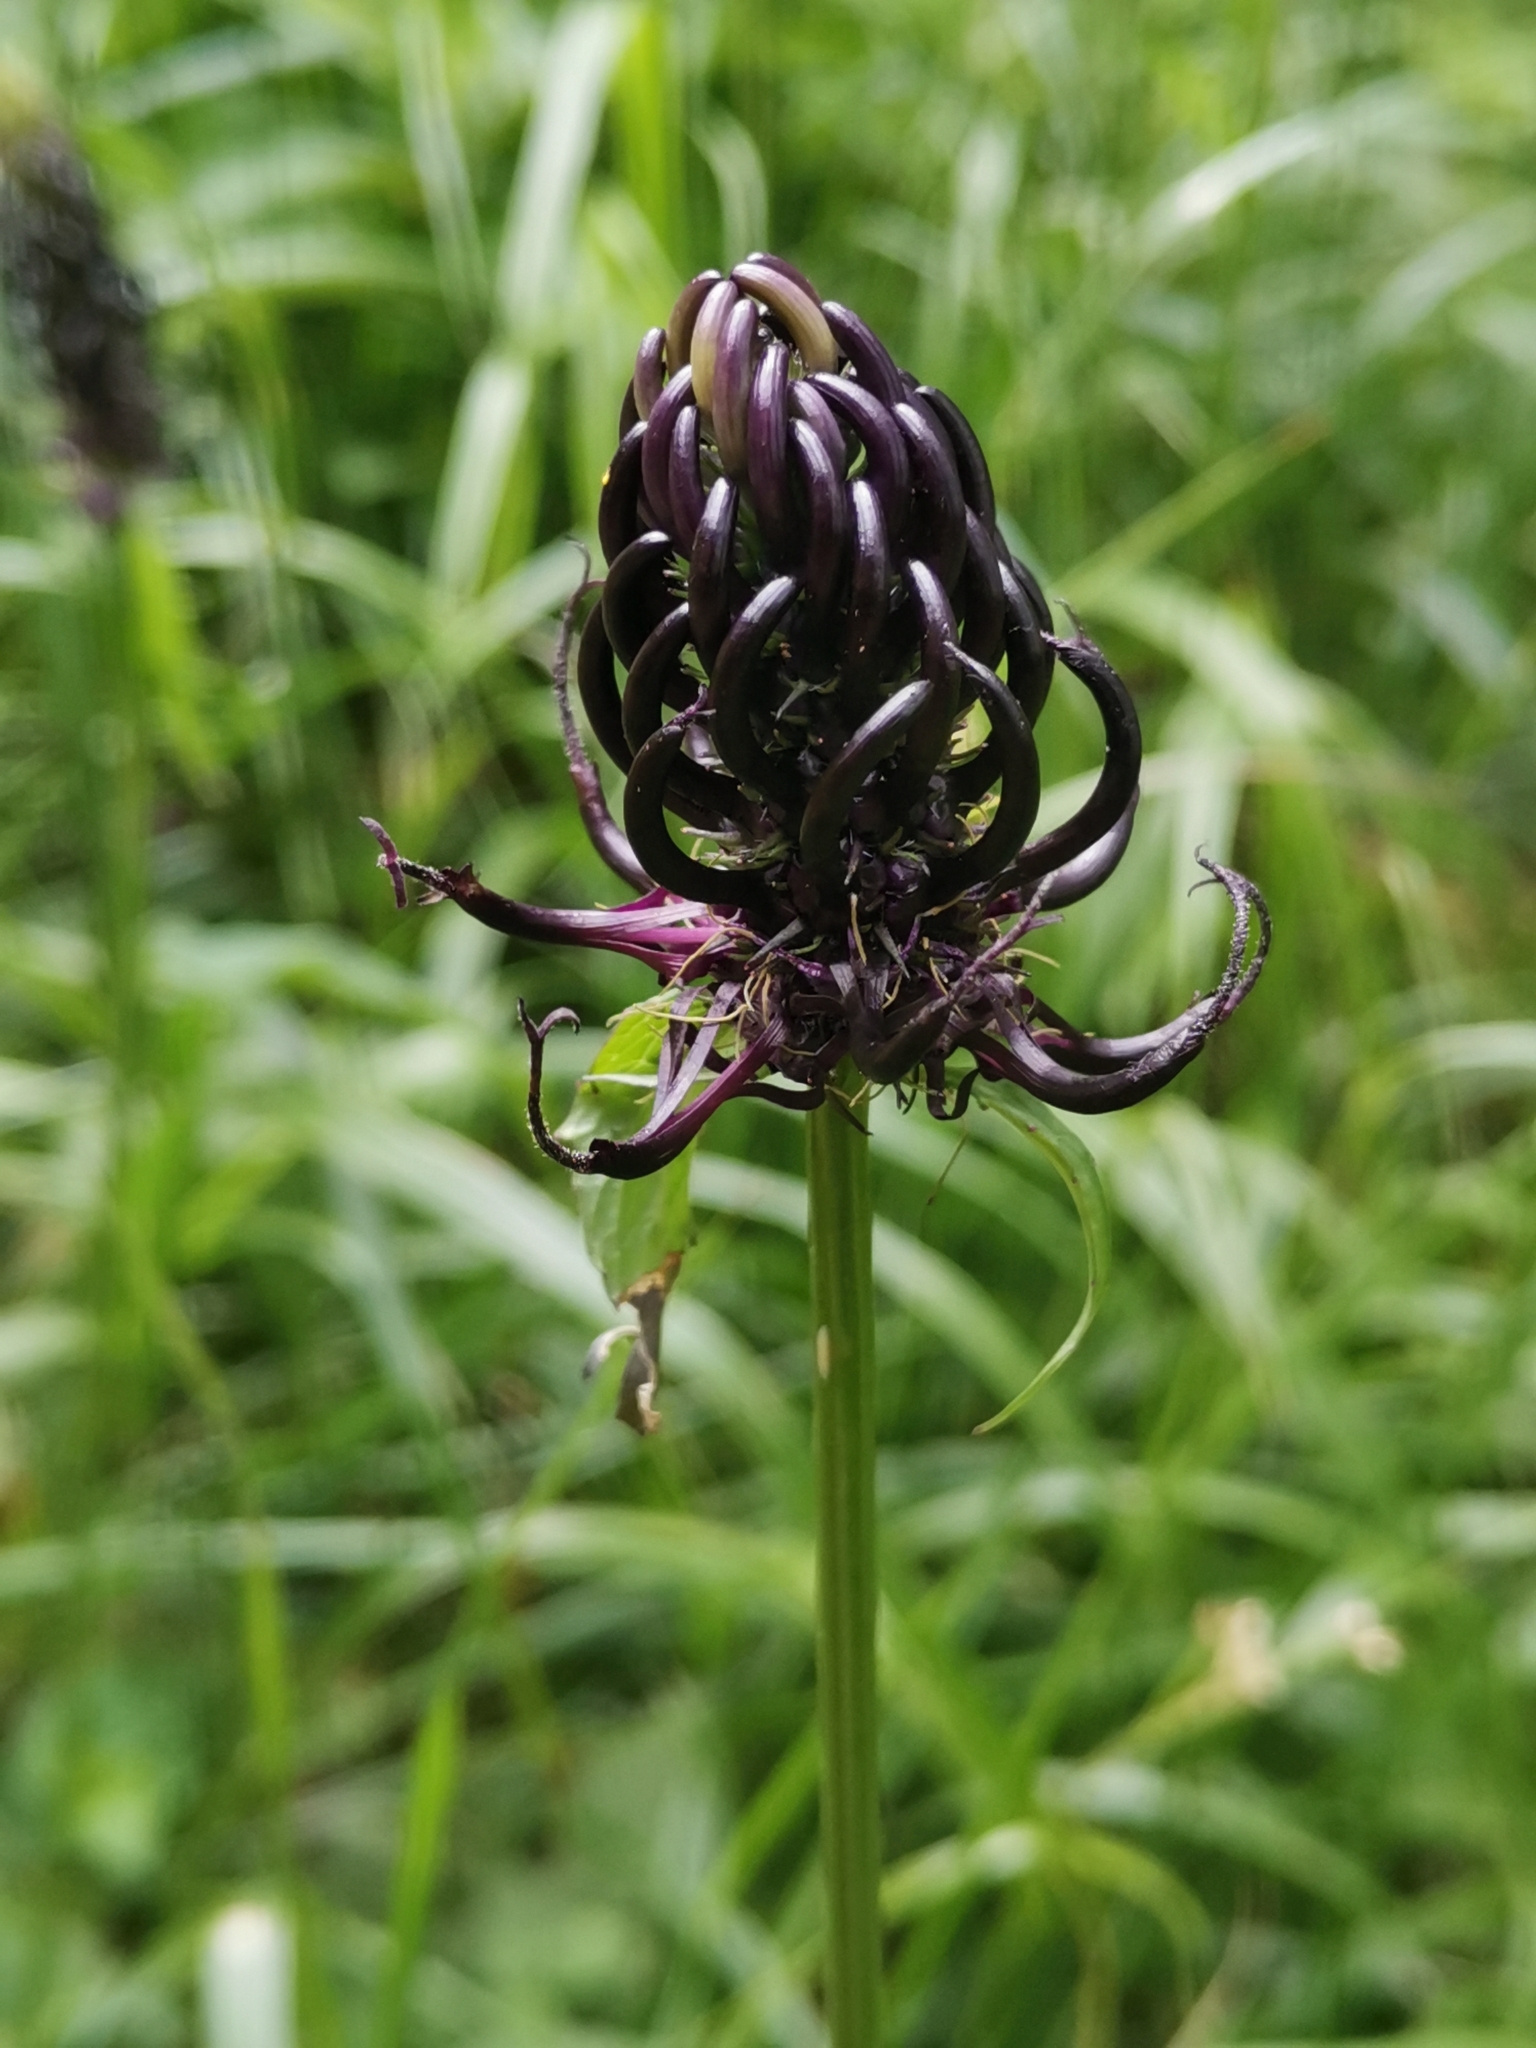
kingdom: Plantae
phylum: Tracheophyta
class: Magnoliopsida
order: Asterales
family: Campanulaceae
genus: Phyteuma
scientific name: Phyteuma ovatum
